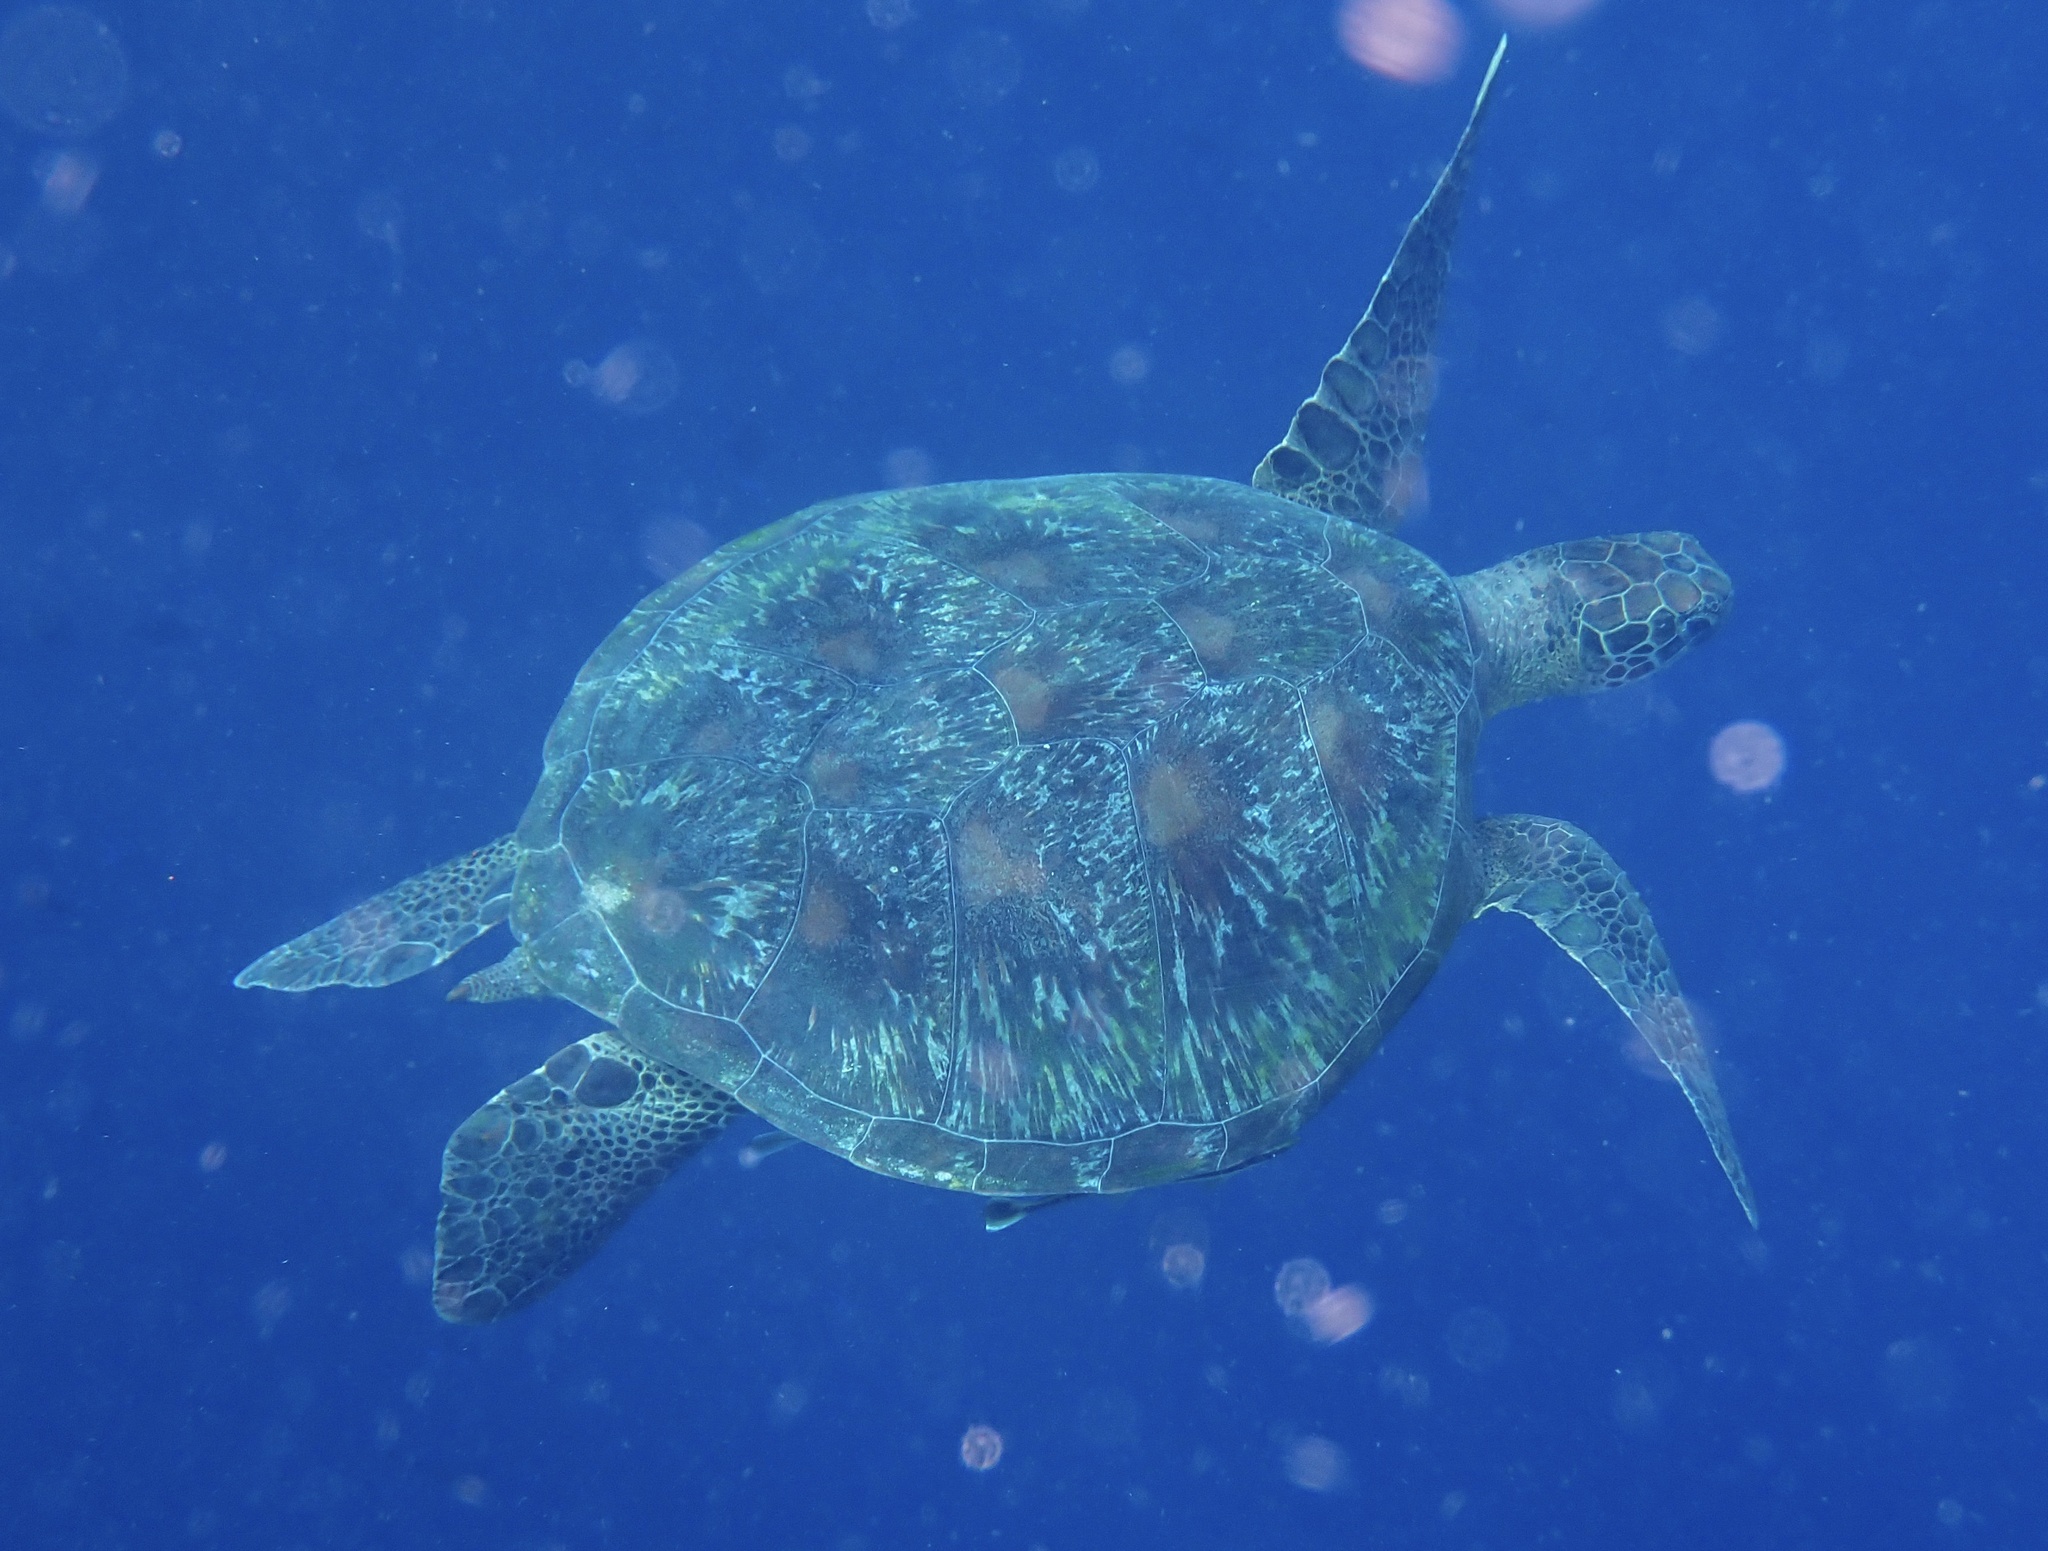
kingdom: Animalia
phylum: Chordata
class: Testudines
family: Cheloniidae
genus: Chelonia
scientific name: Chelonia mydas
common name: Green turtle
